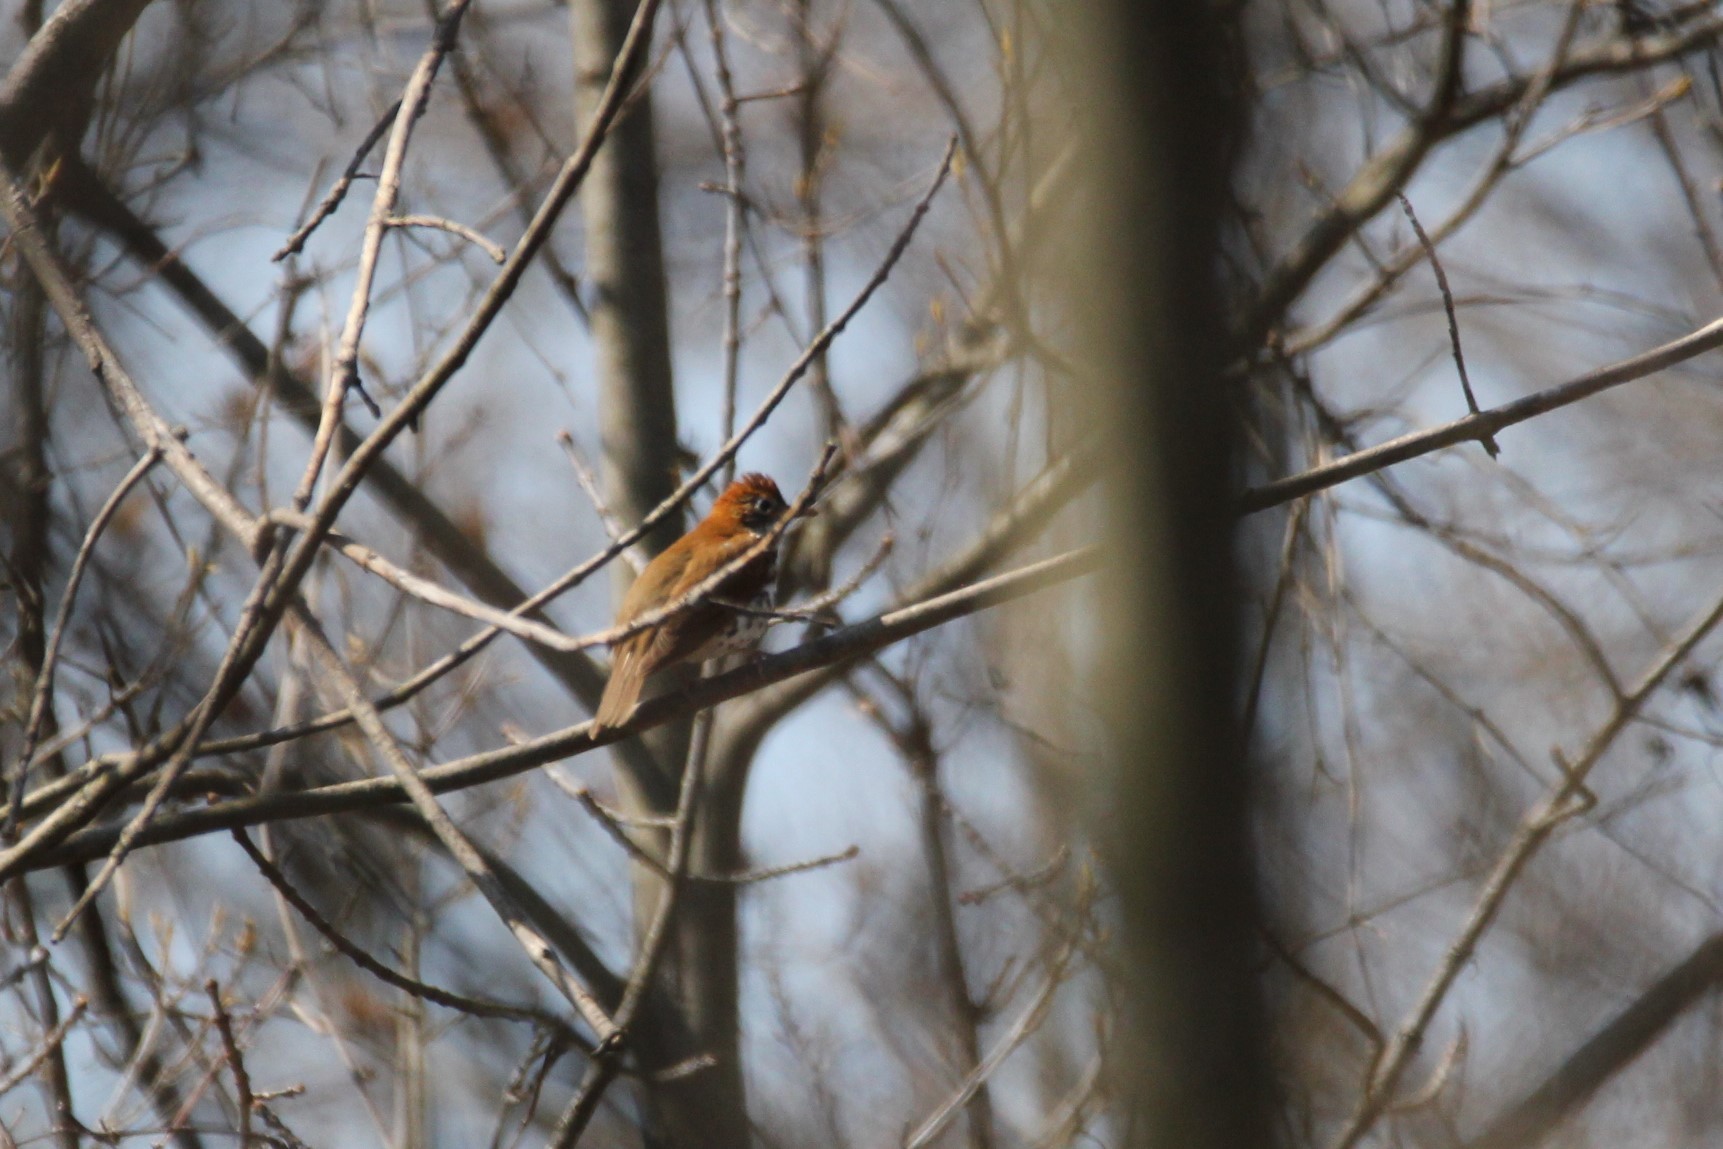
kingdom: Animalia
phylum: Chordata
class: Aves
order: Passeriformes
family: Turdidae
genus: Hylocichla
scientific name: Hylocichla mustelina
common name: Wood thrush
